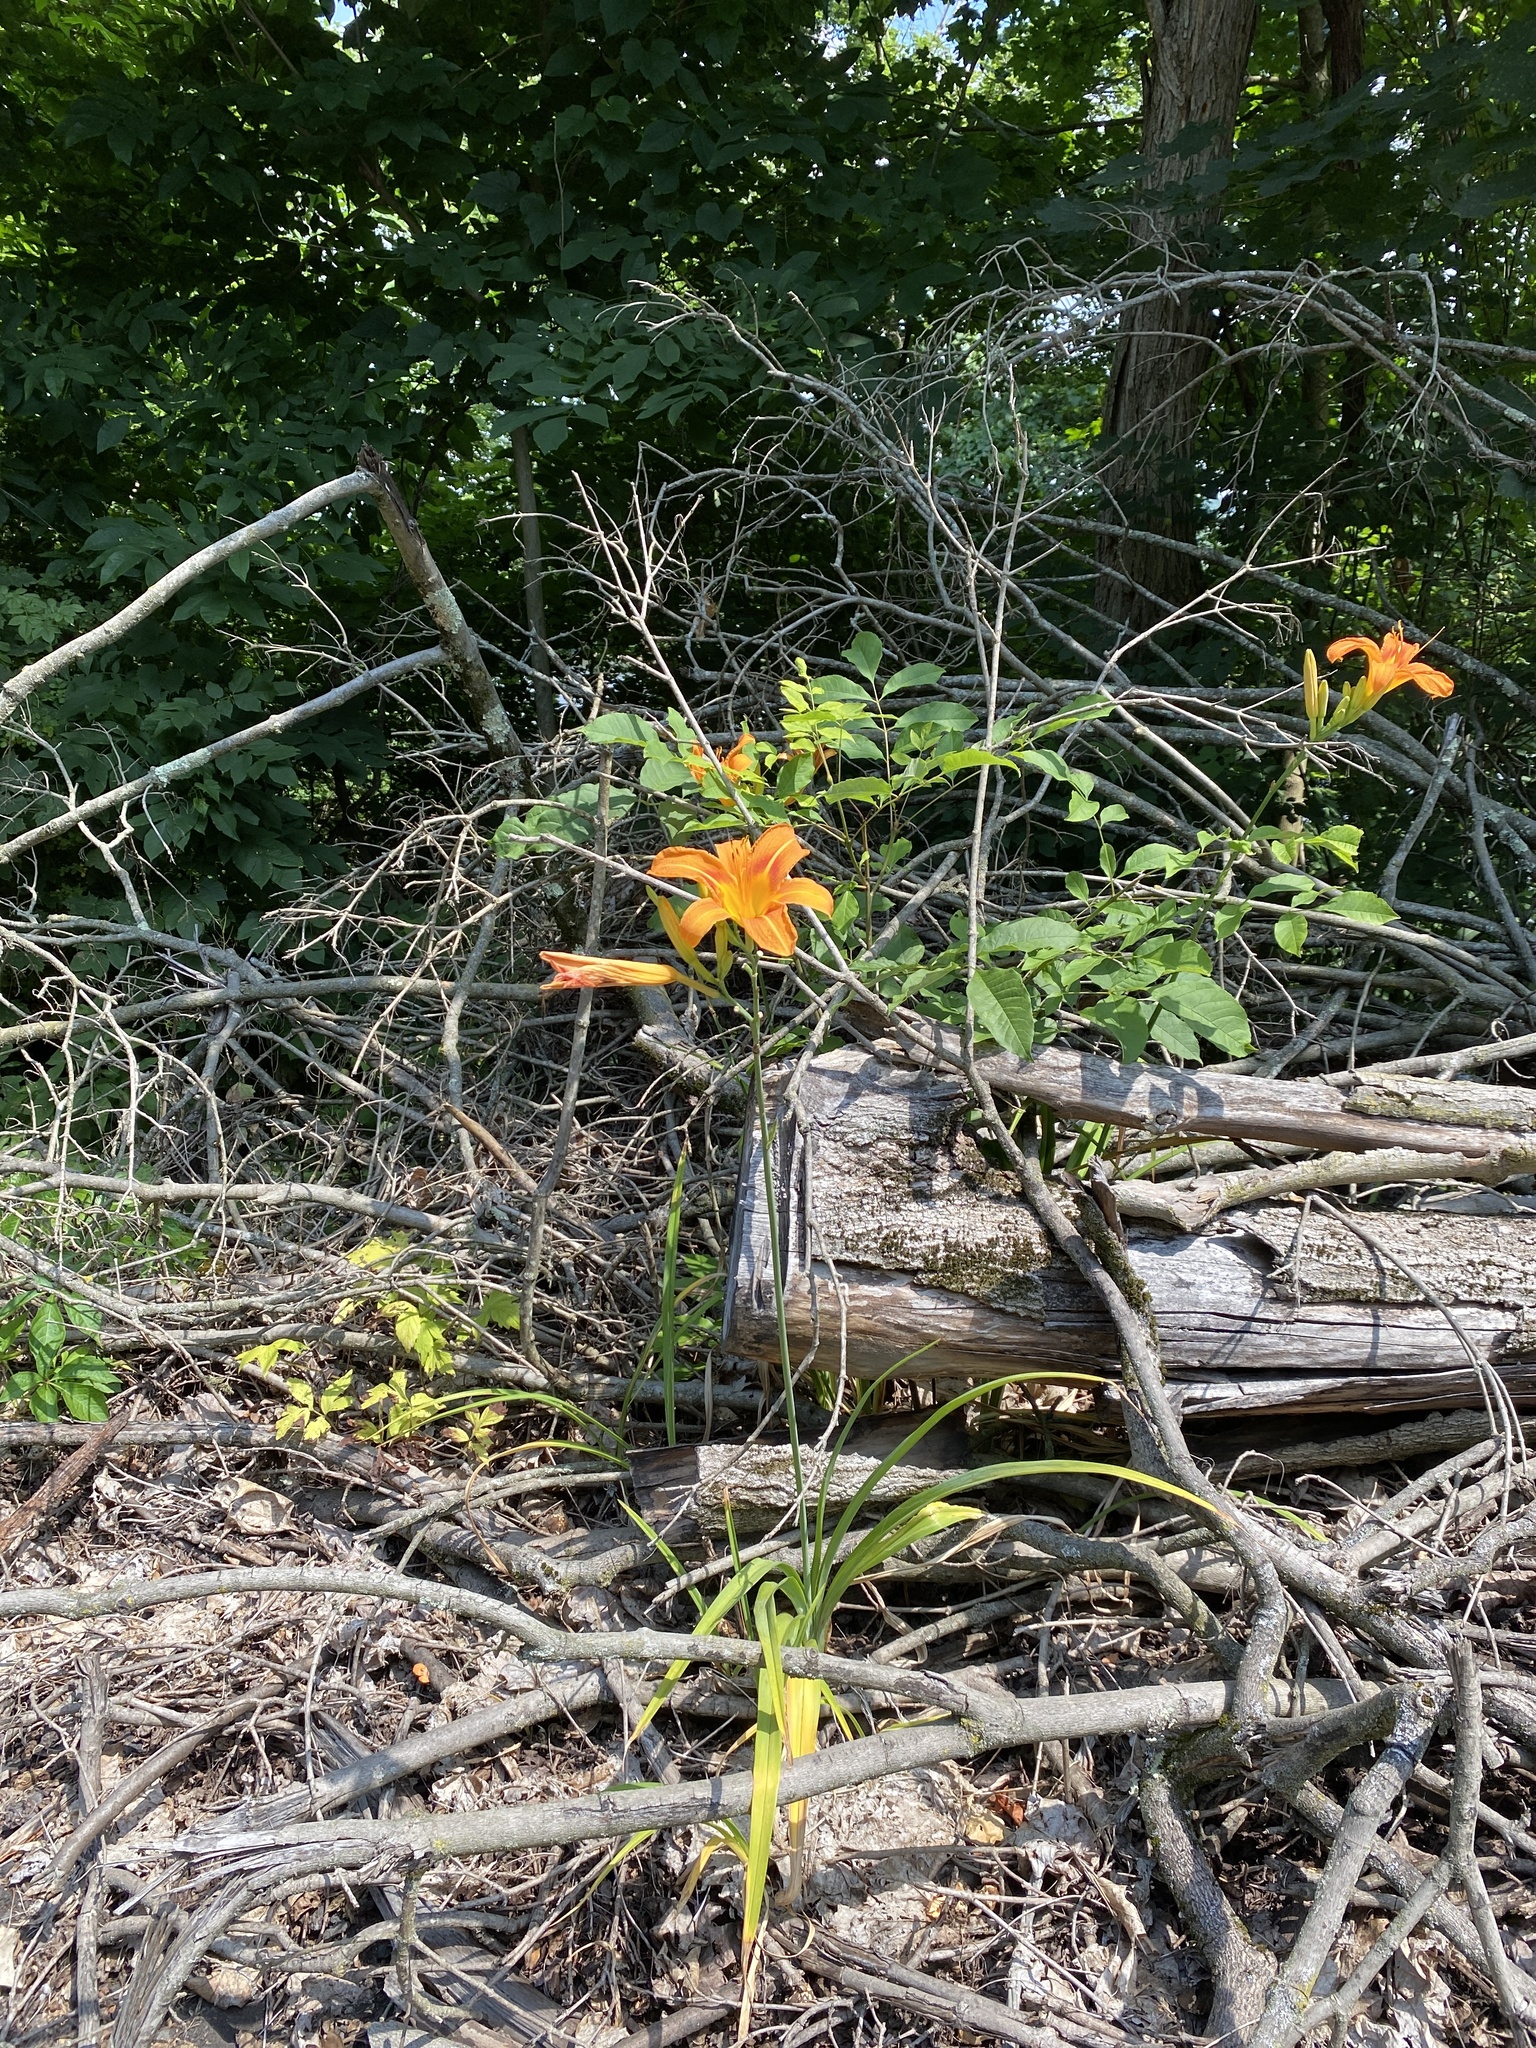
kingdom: Plantae
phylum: Tracheophyta
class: Liliopsida
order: Asparagales
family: Asphodelaceae
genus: Hemerocallis
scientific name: Hemerocallis fulva
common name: Orange day-lily
